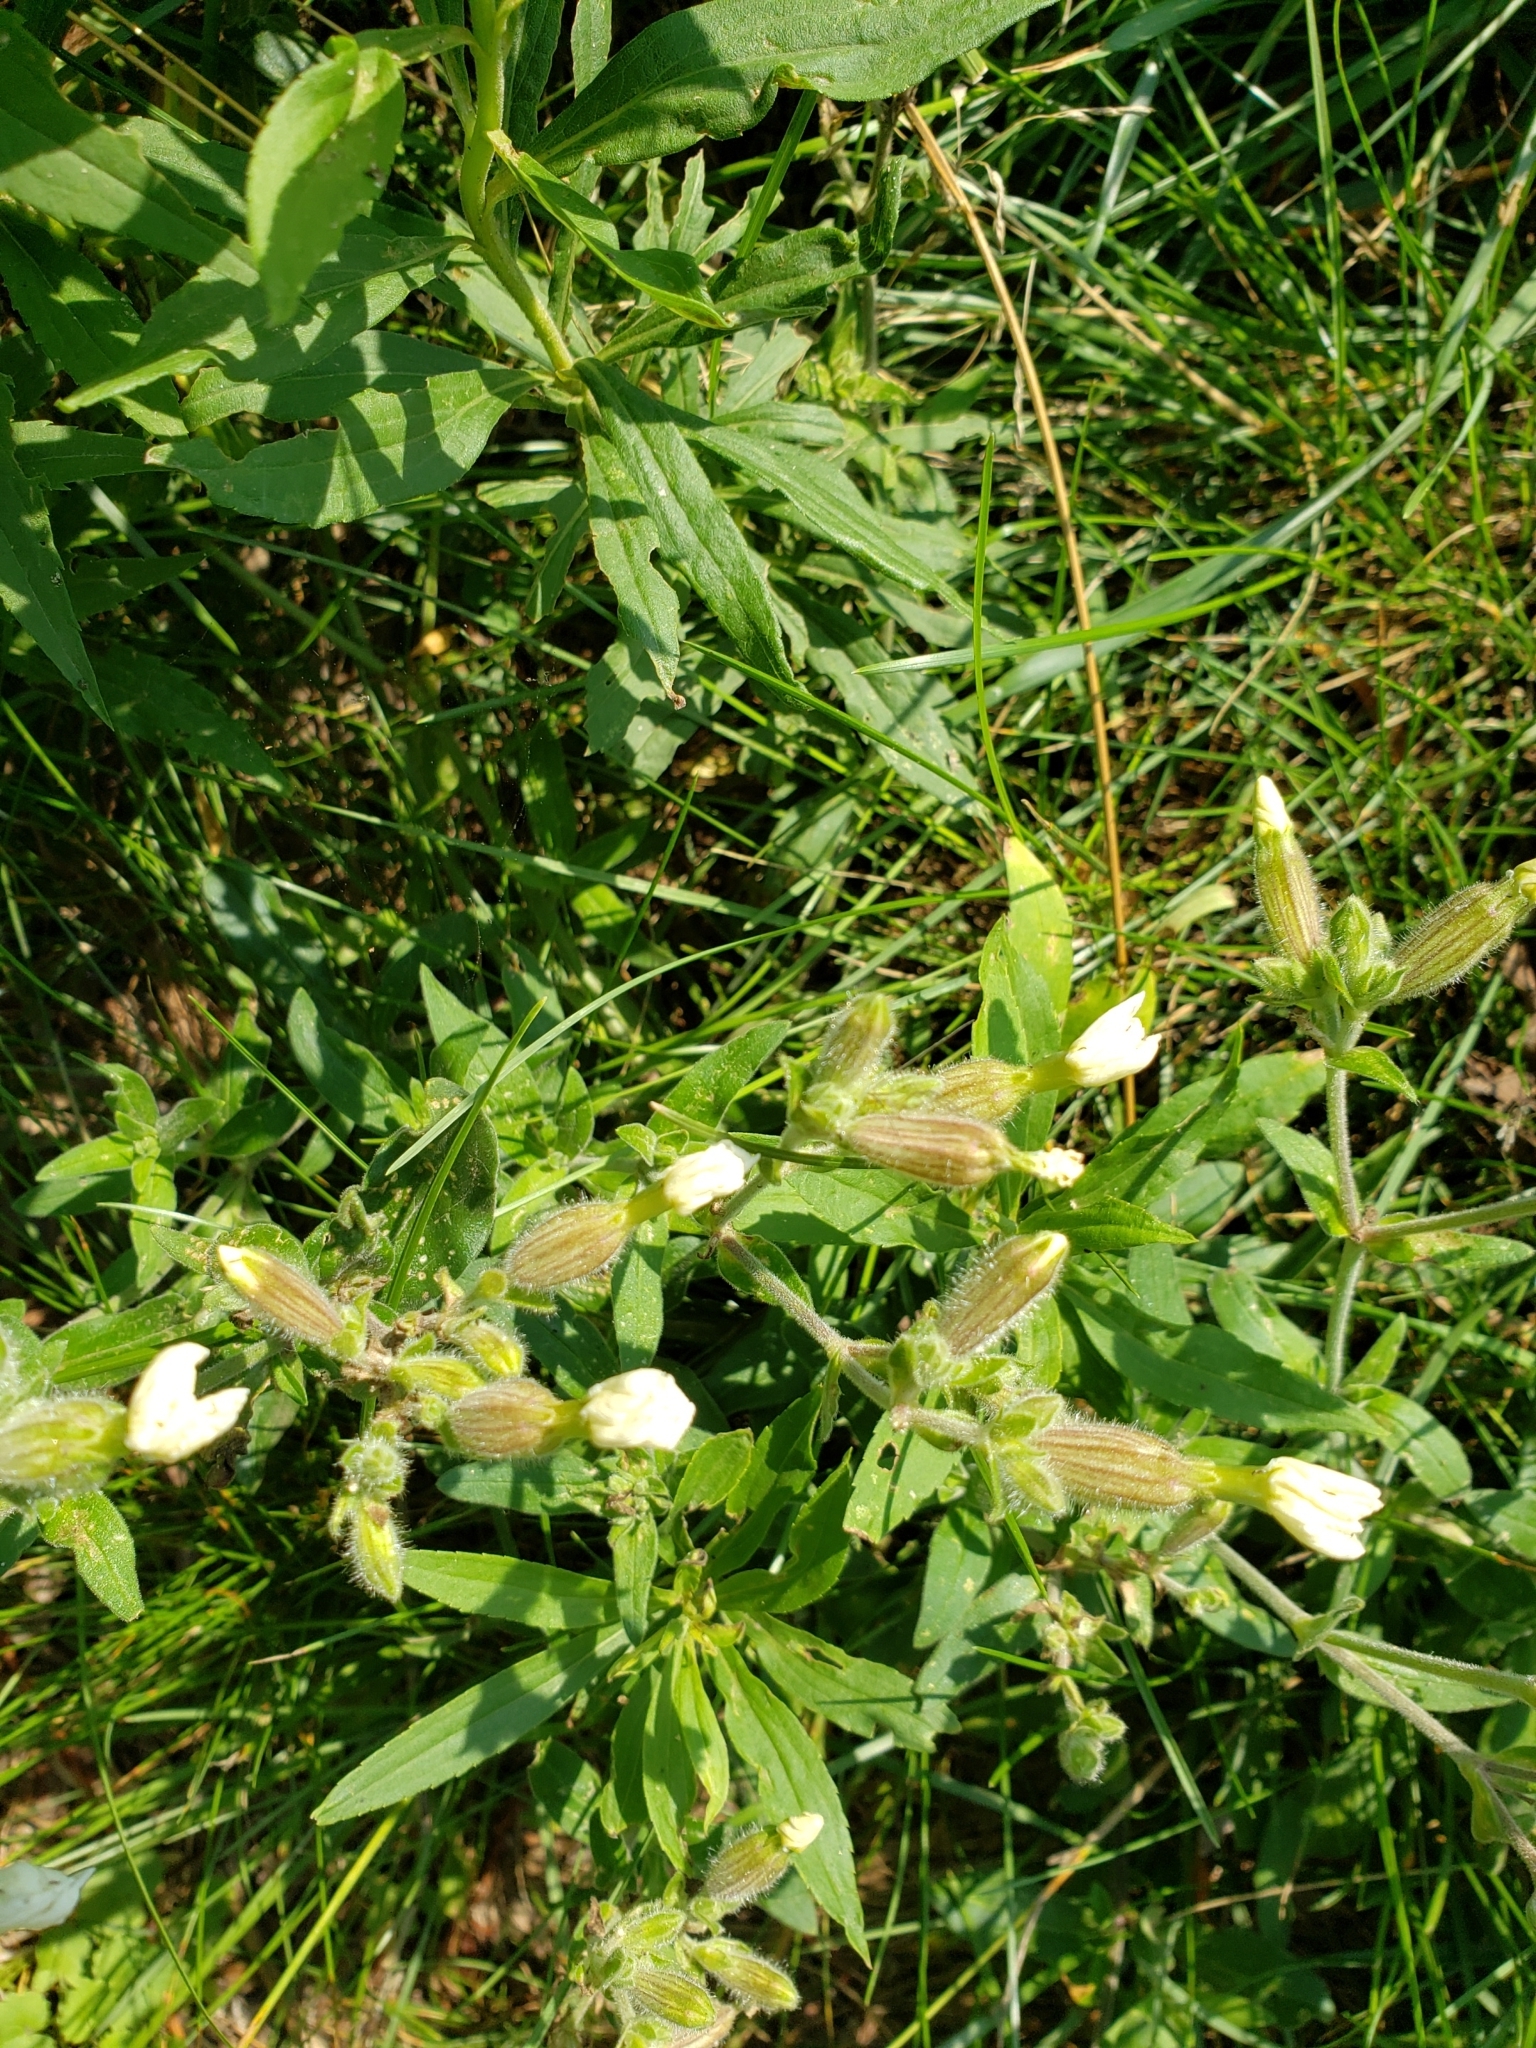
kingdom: Plantae
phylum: Tracheophyta
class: Magnoliopsida
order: Caryophyllales
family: Caryophyllaceae
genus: Silene
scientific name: Silene latifolia
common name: White campion
